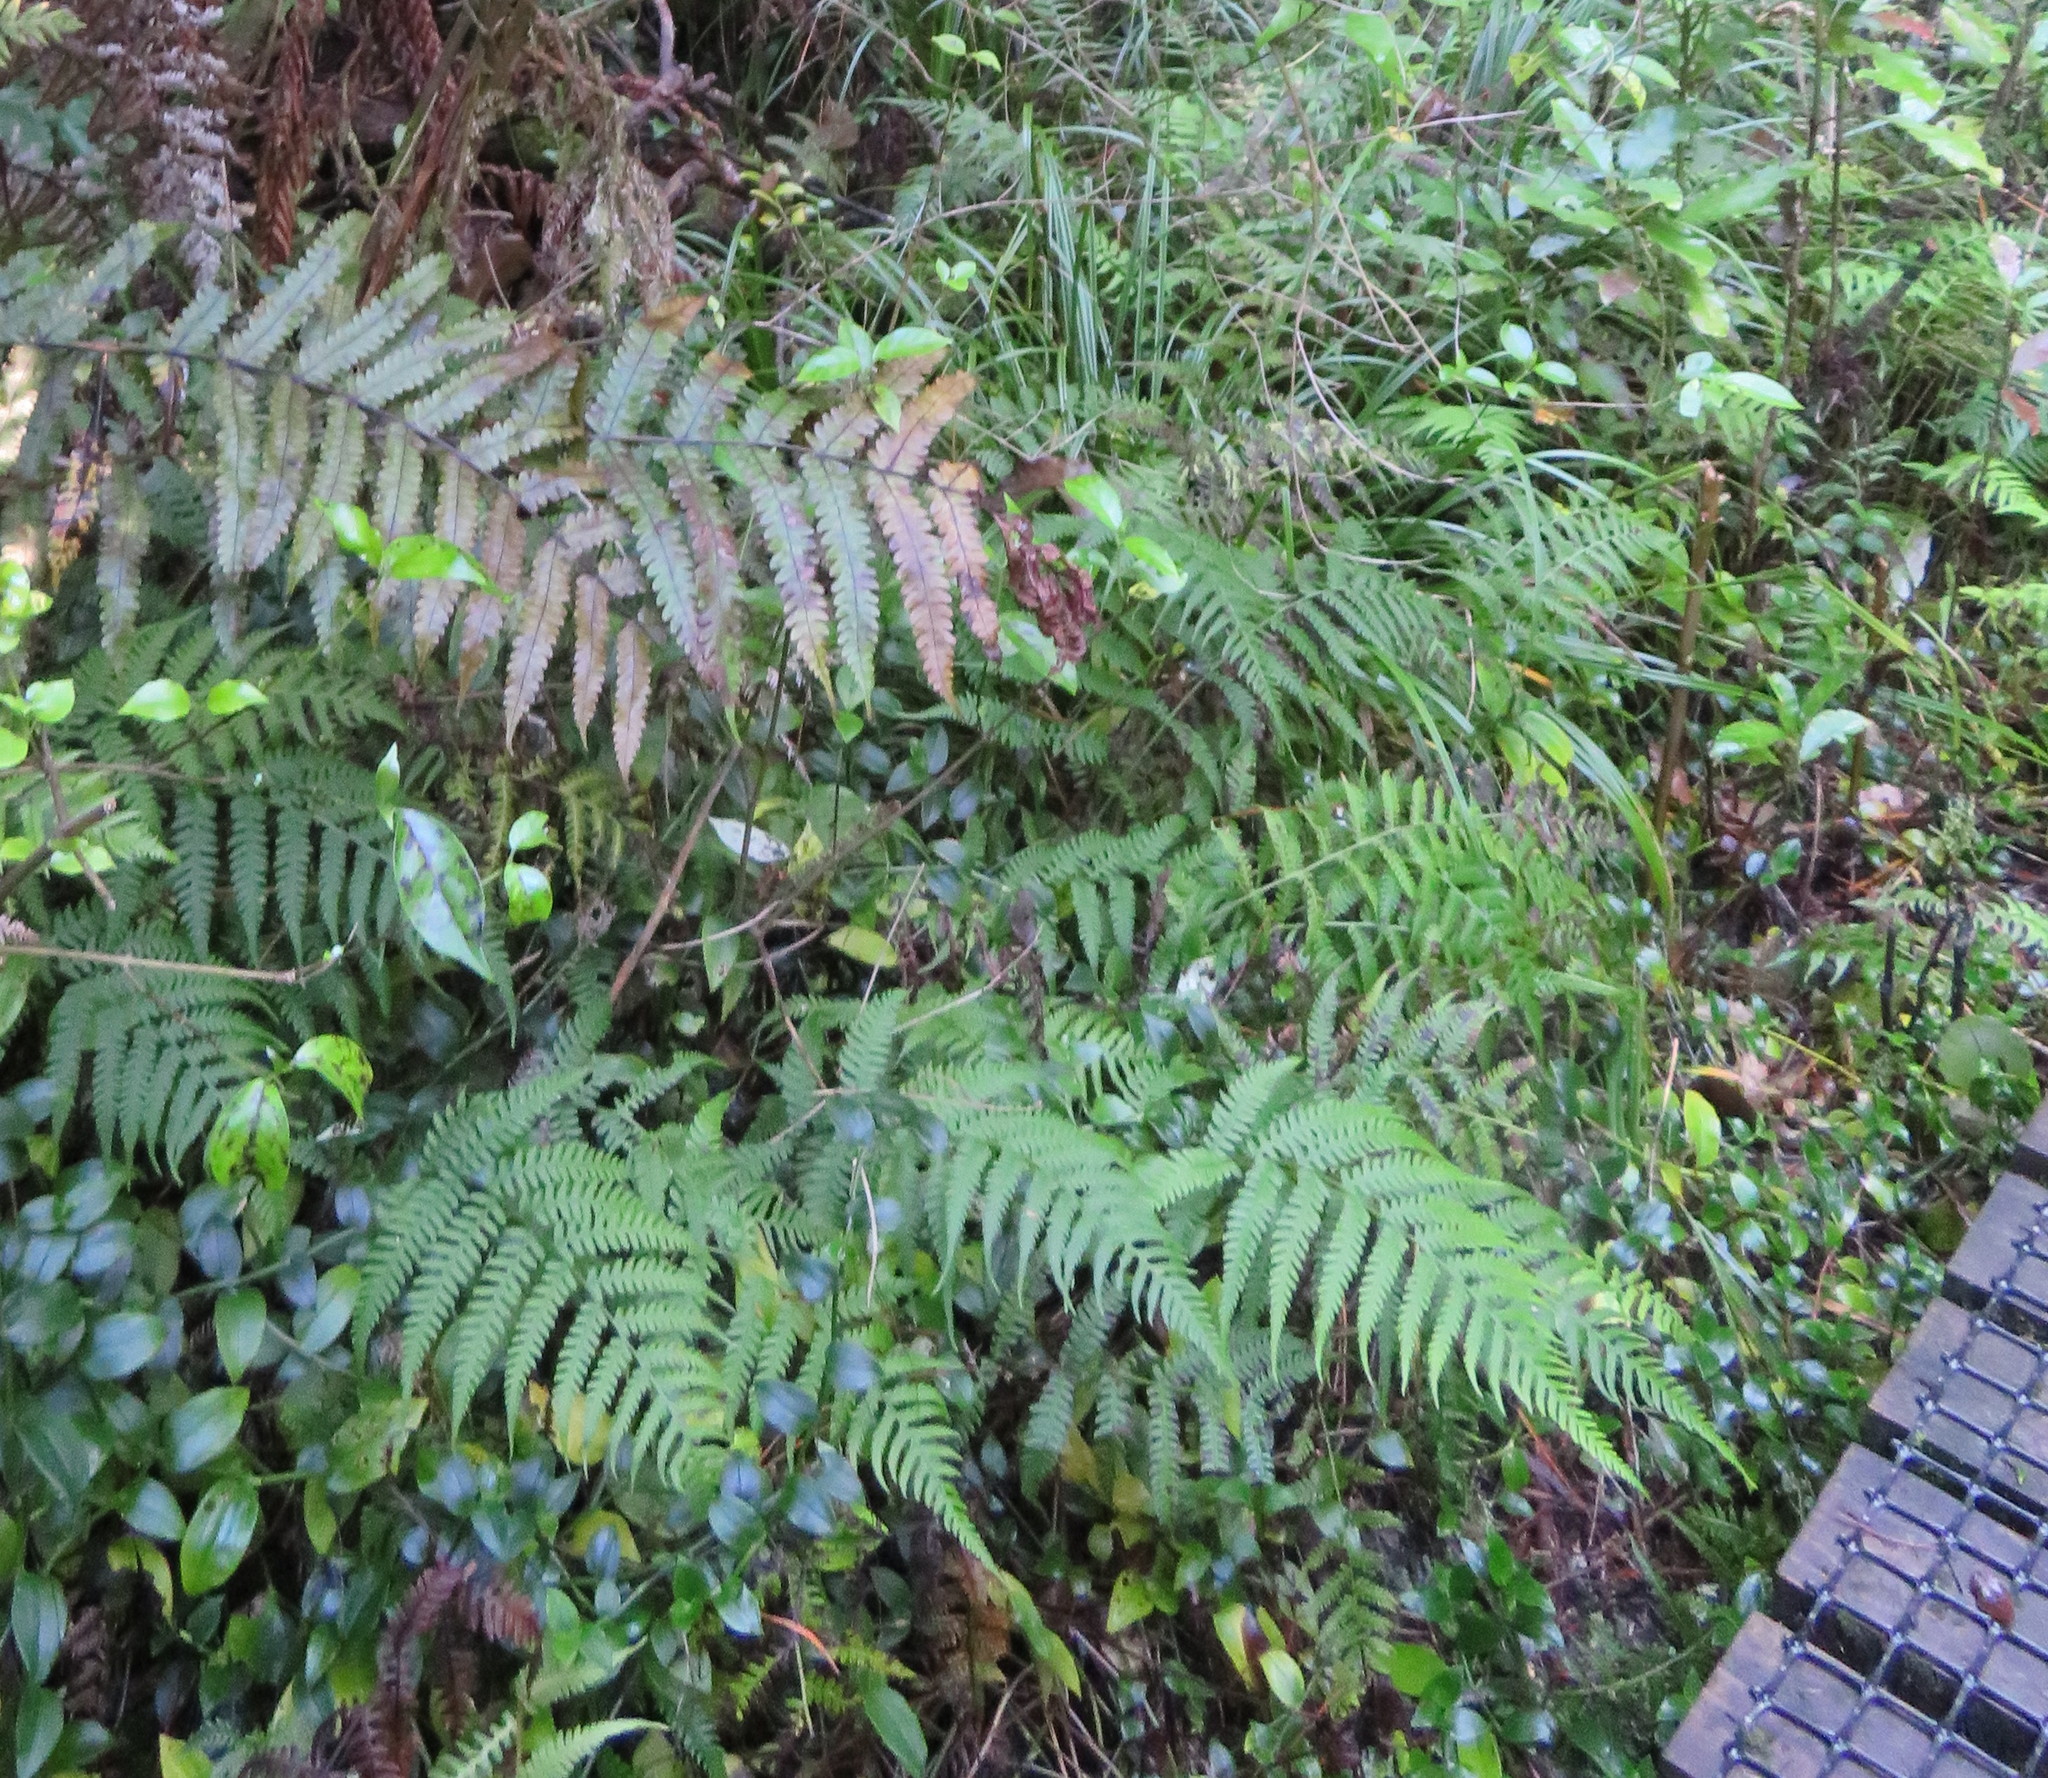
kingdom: Plantae
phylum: Tracheophyta
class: Polypodiopsida
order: Polypodiales
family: Athyriaceae
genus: Diplazium
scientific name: Diplazium congruum
